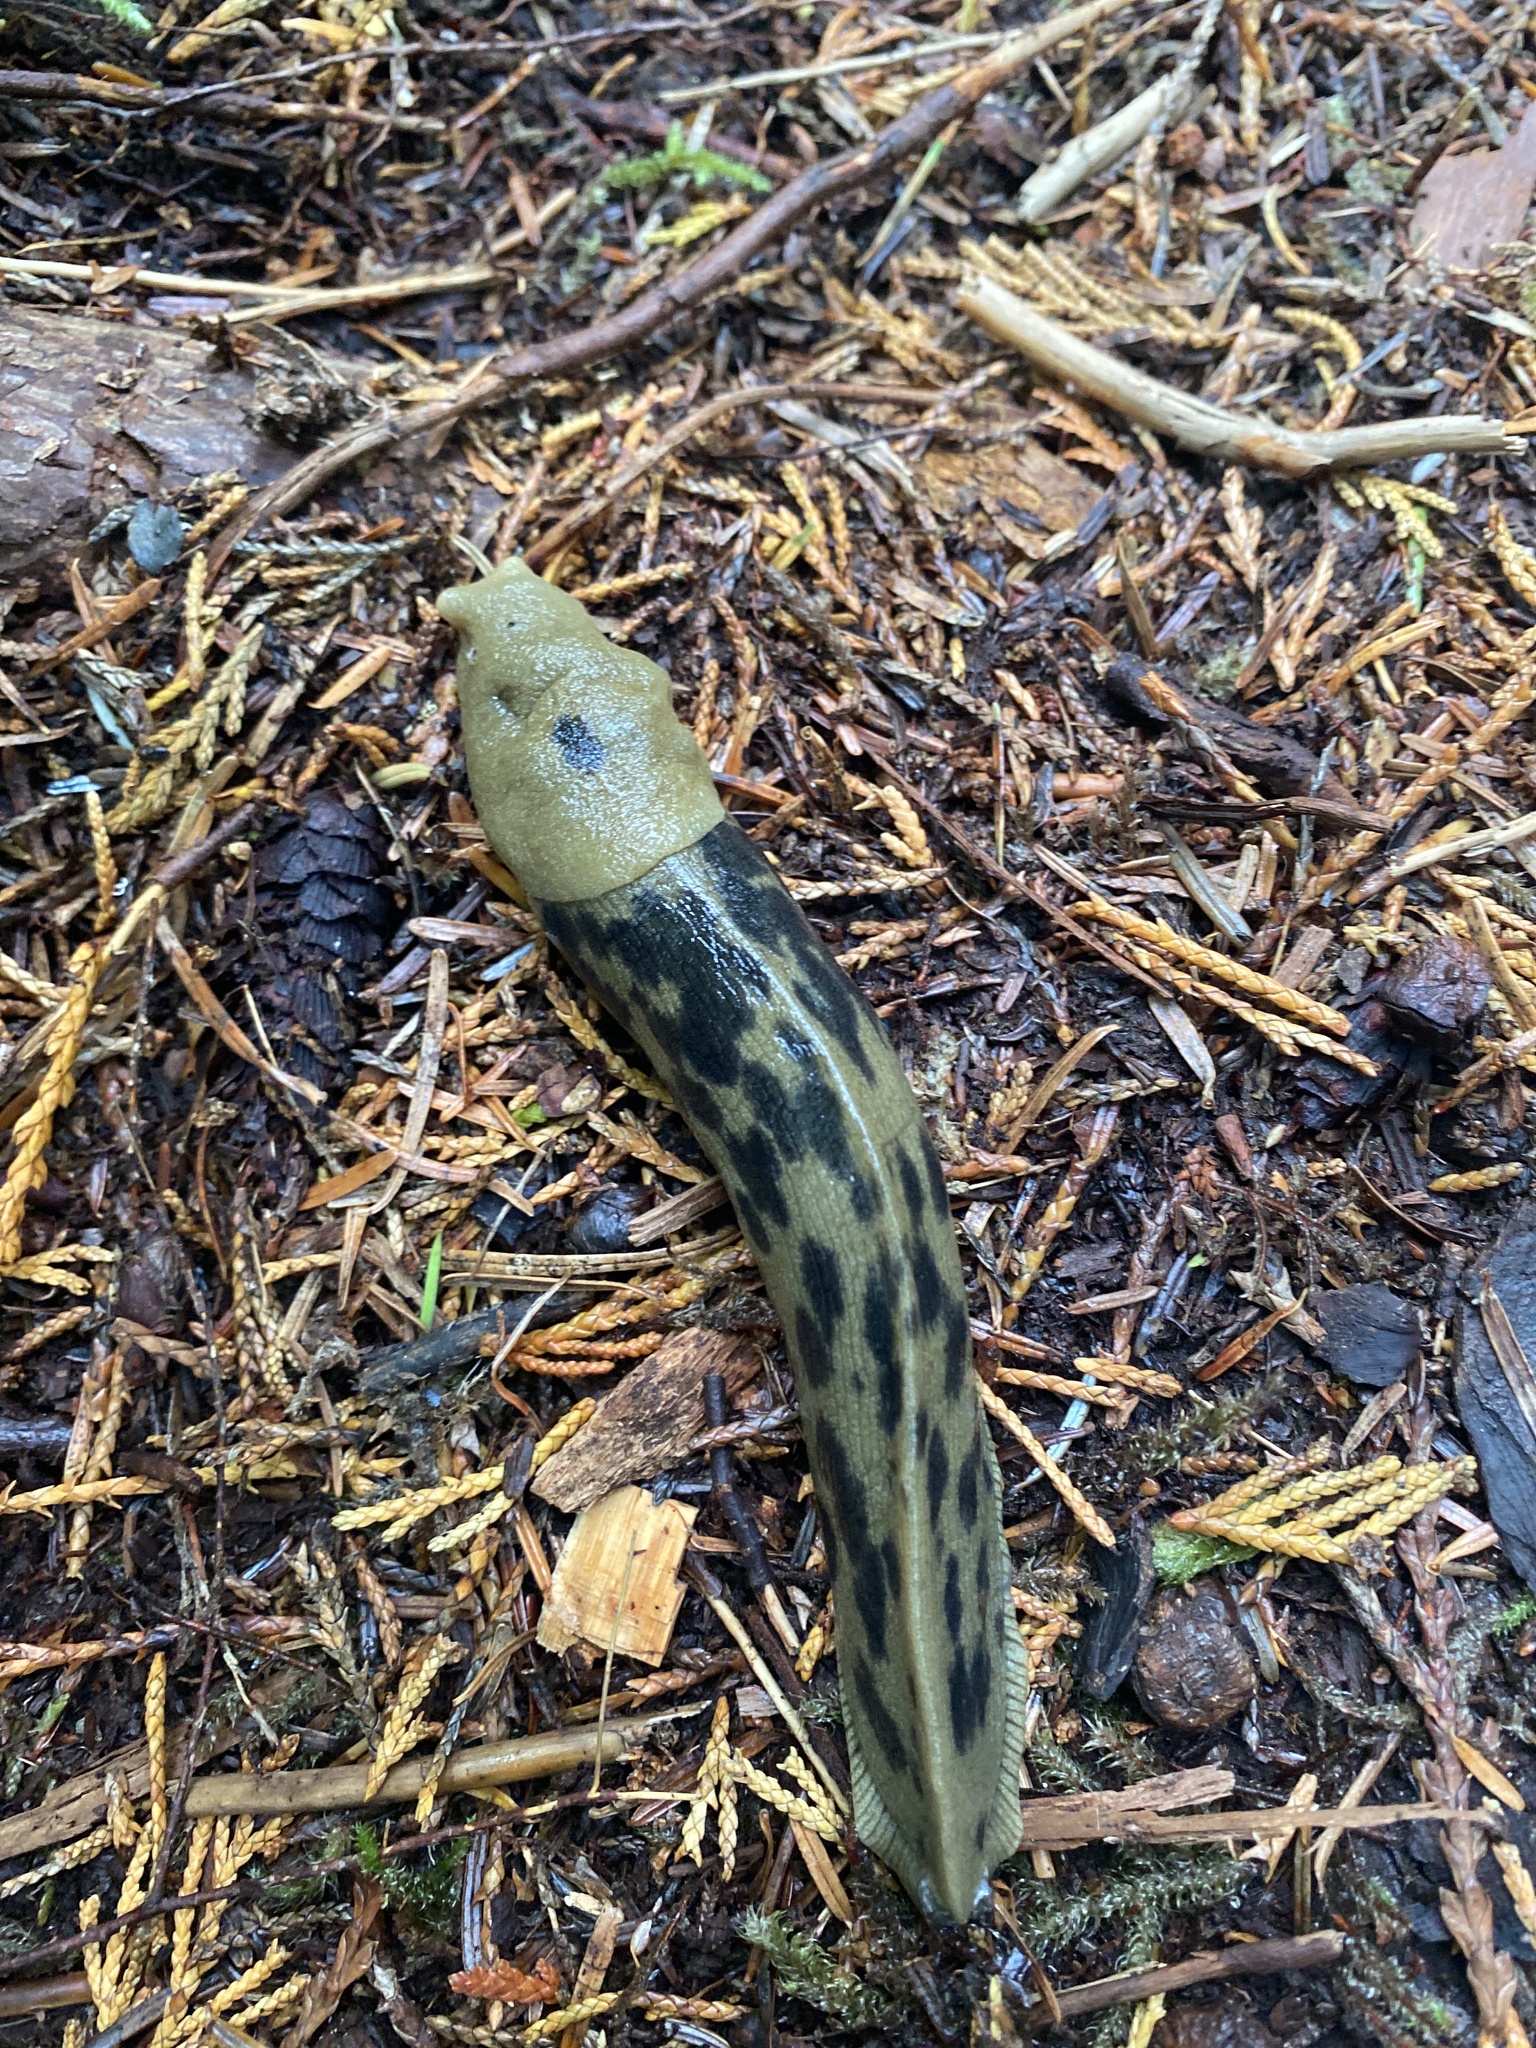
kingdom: Animalia
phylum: Mollusca
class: Gastropoda
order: Stylommatophora
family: Ariolimacidae
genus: Ariolimax
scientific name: Ariolimax columbianus
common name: Pacific banana slug
